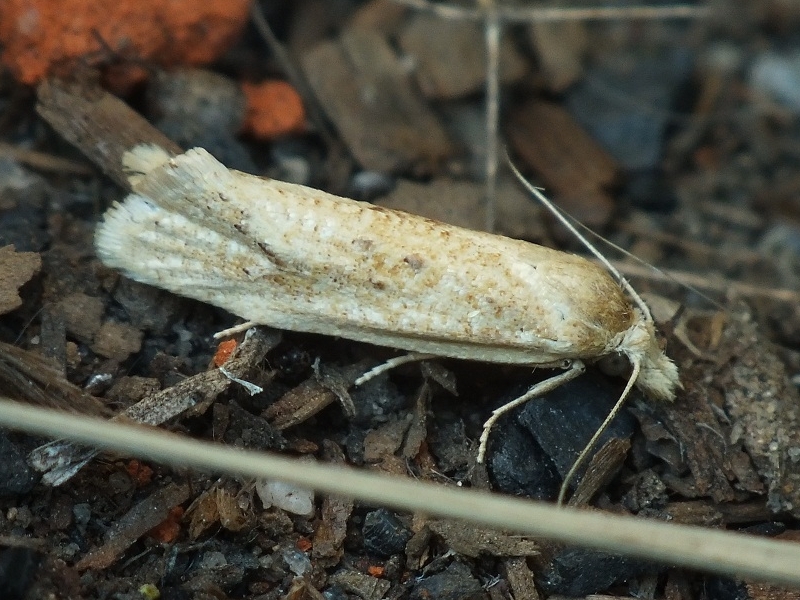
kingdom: Animalia
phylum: Arthropoda
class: Insecta
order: Lepidoptera
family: Tortricidae
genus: Cochylimorpha
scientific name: Cochylimorpha meridiana
